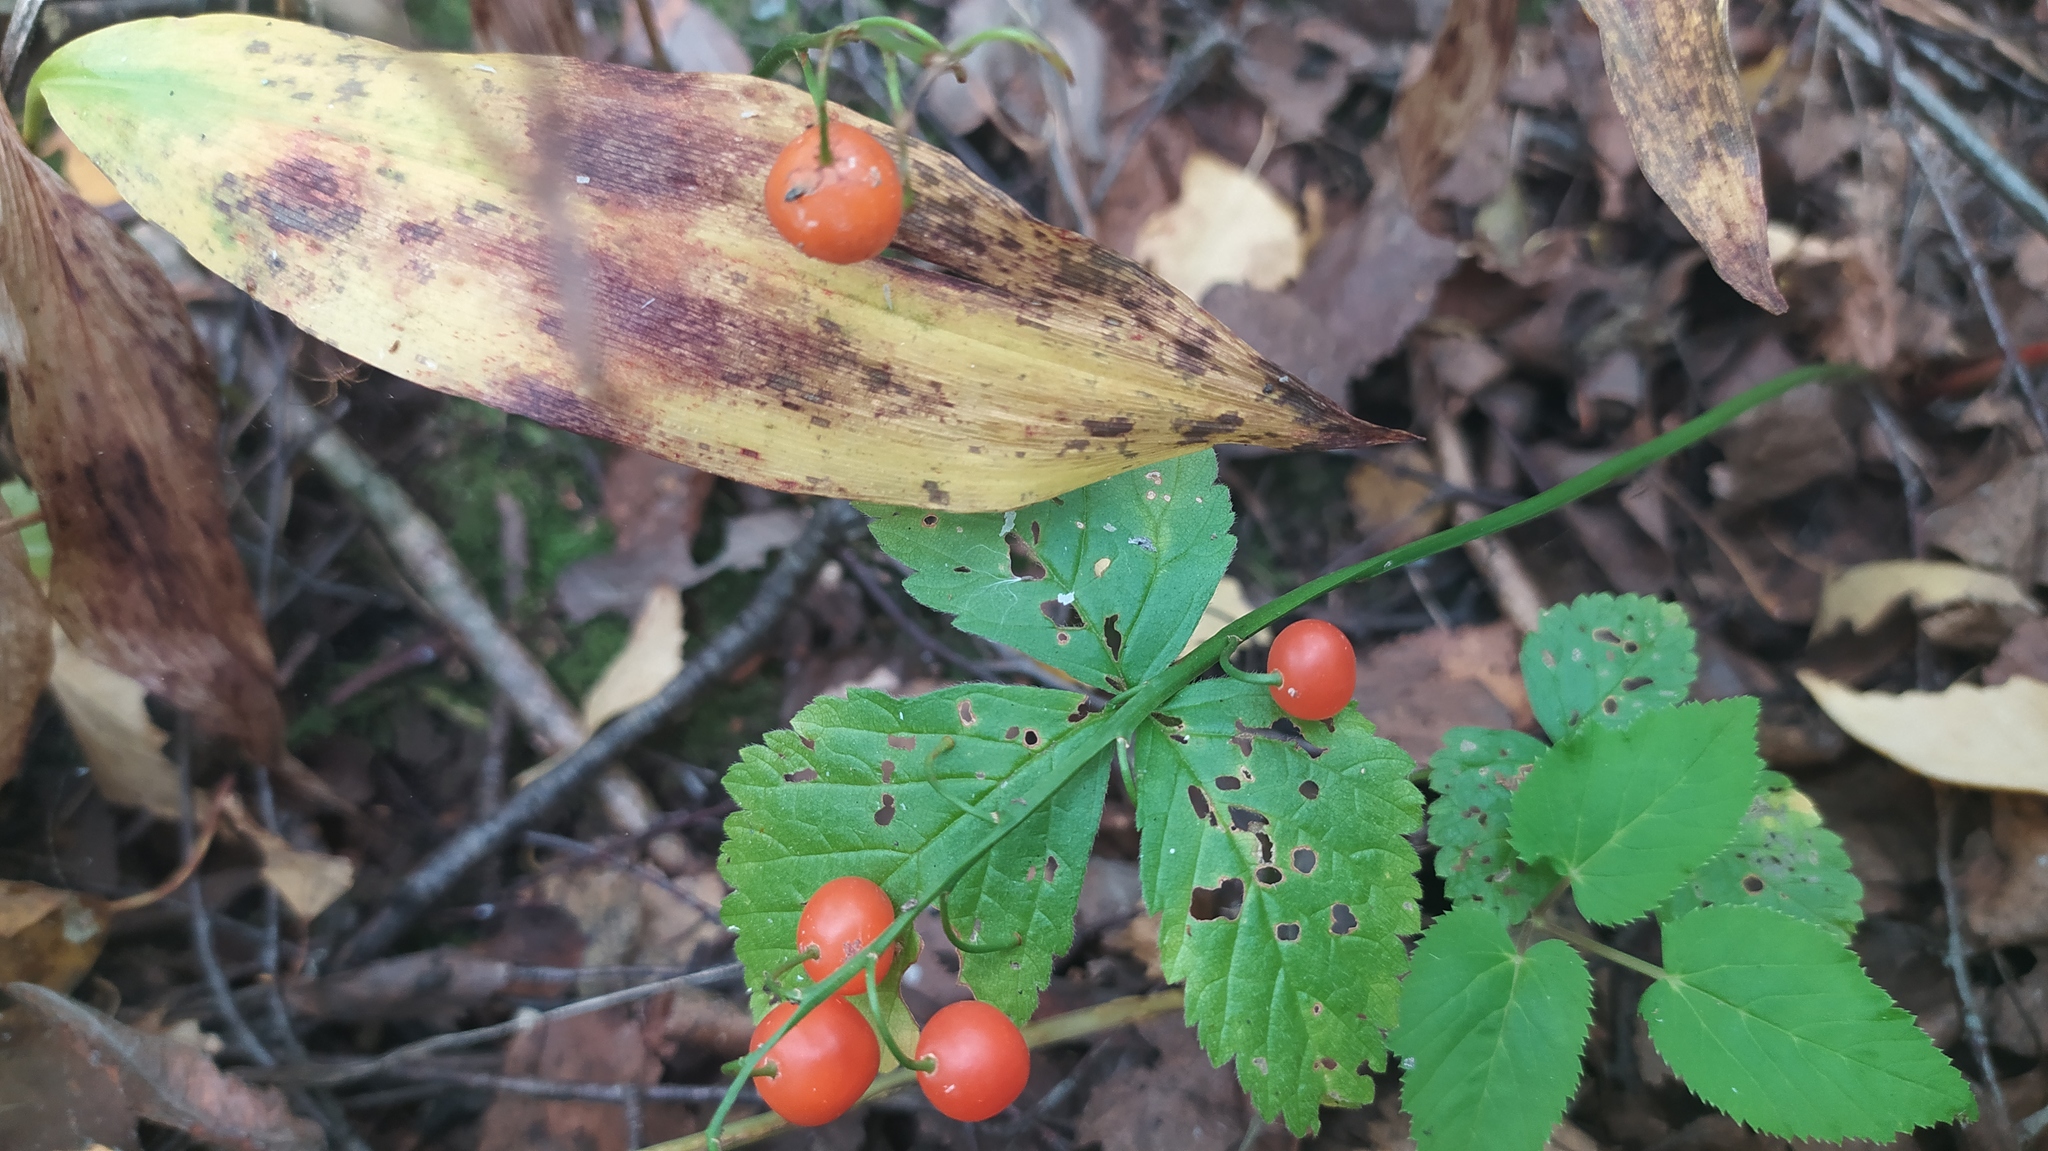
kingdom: Plantae
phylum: Tracheophyta
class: Liliopsida
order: Asparagales
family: Asparagaceae
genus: Convallaria
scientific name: Convallaria majalis
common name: Lily-of-the-valley
